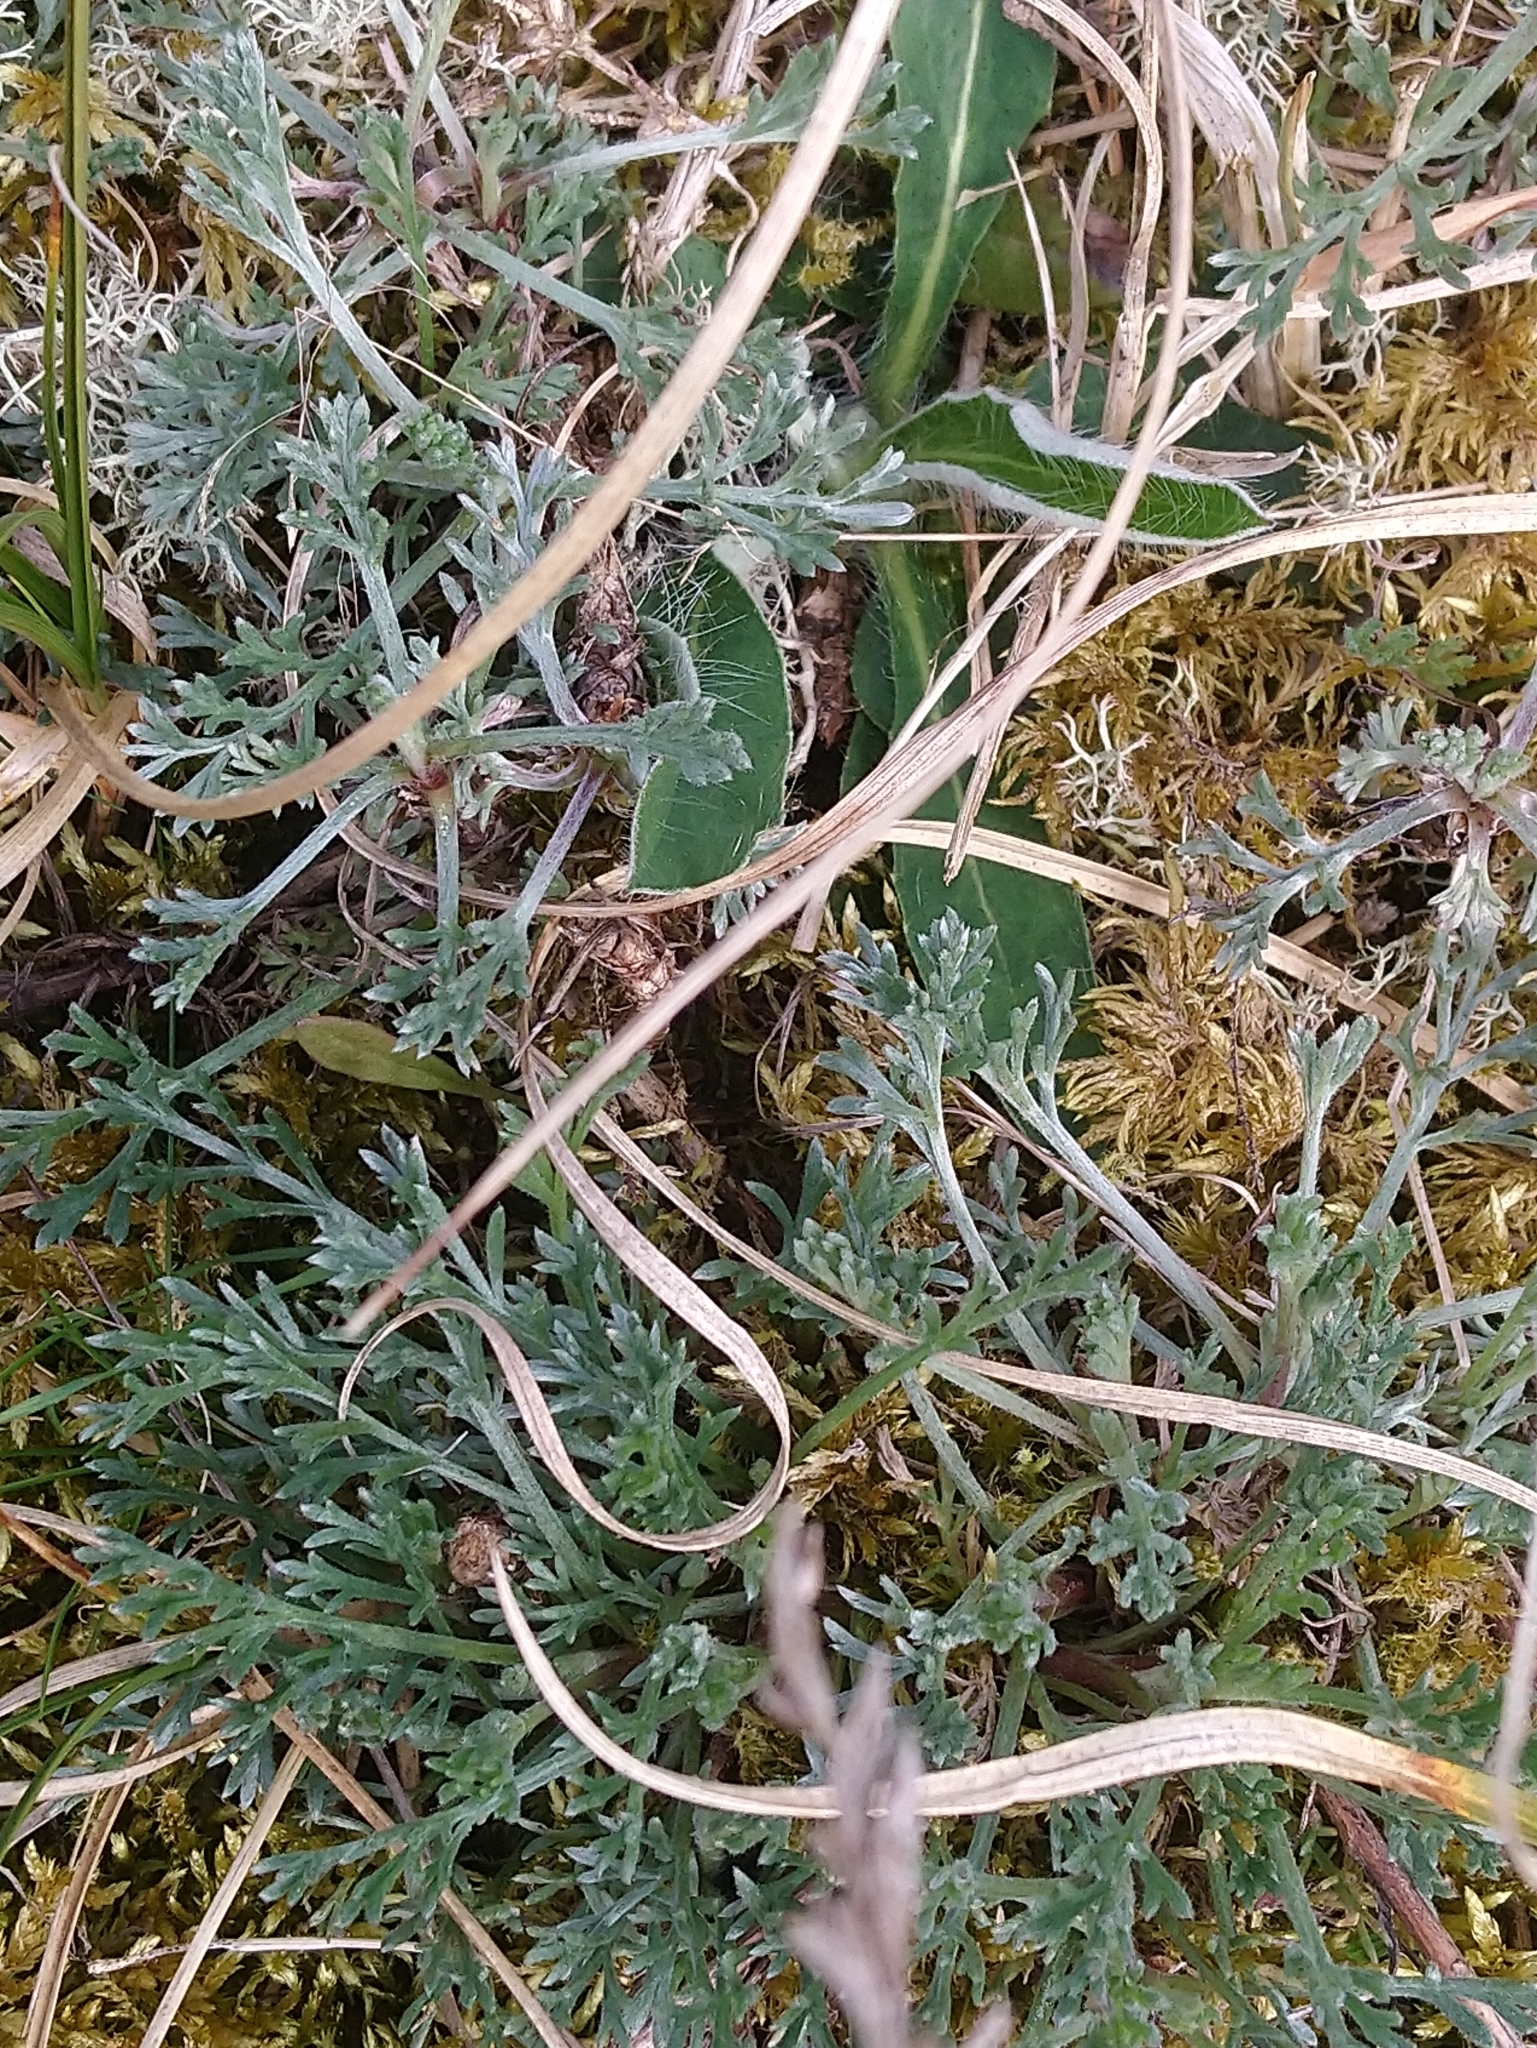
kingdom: Plantae
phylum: Tracheophyta
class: Magnoliopsida
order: Asterales
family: Asteraceae
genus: Artemisia
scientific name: Artemisia campestris
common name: Field wormwood
